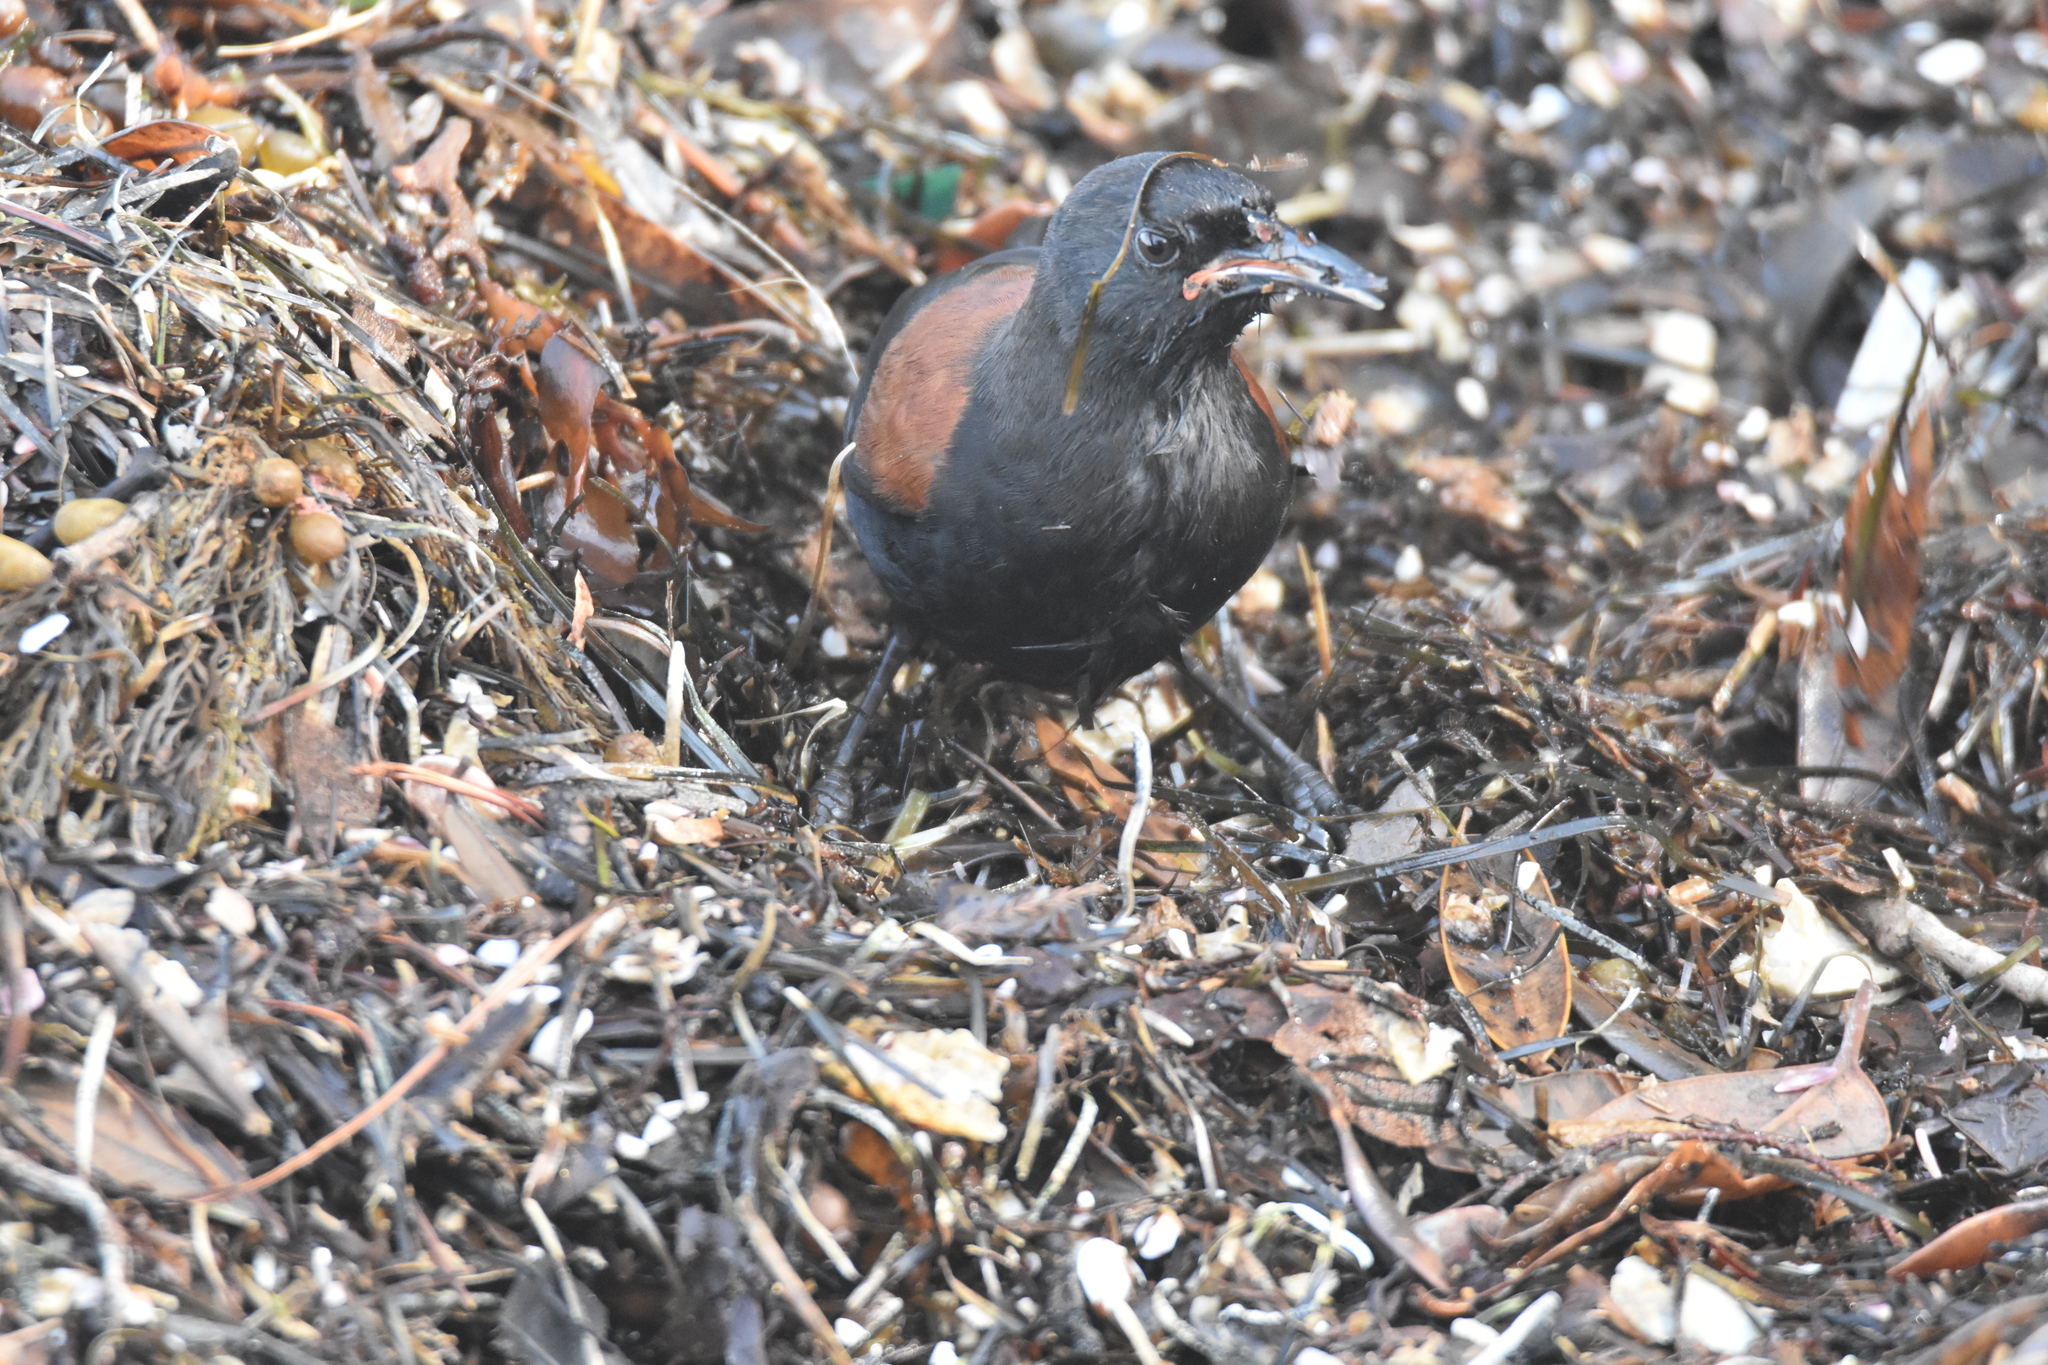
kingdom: Animalia
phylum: Chordata
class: Aves
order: Passeriformes
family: Callaeatidae
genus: Philesturnus
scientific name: Philesturnus carunculatus
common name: South island saddleback
